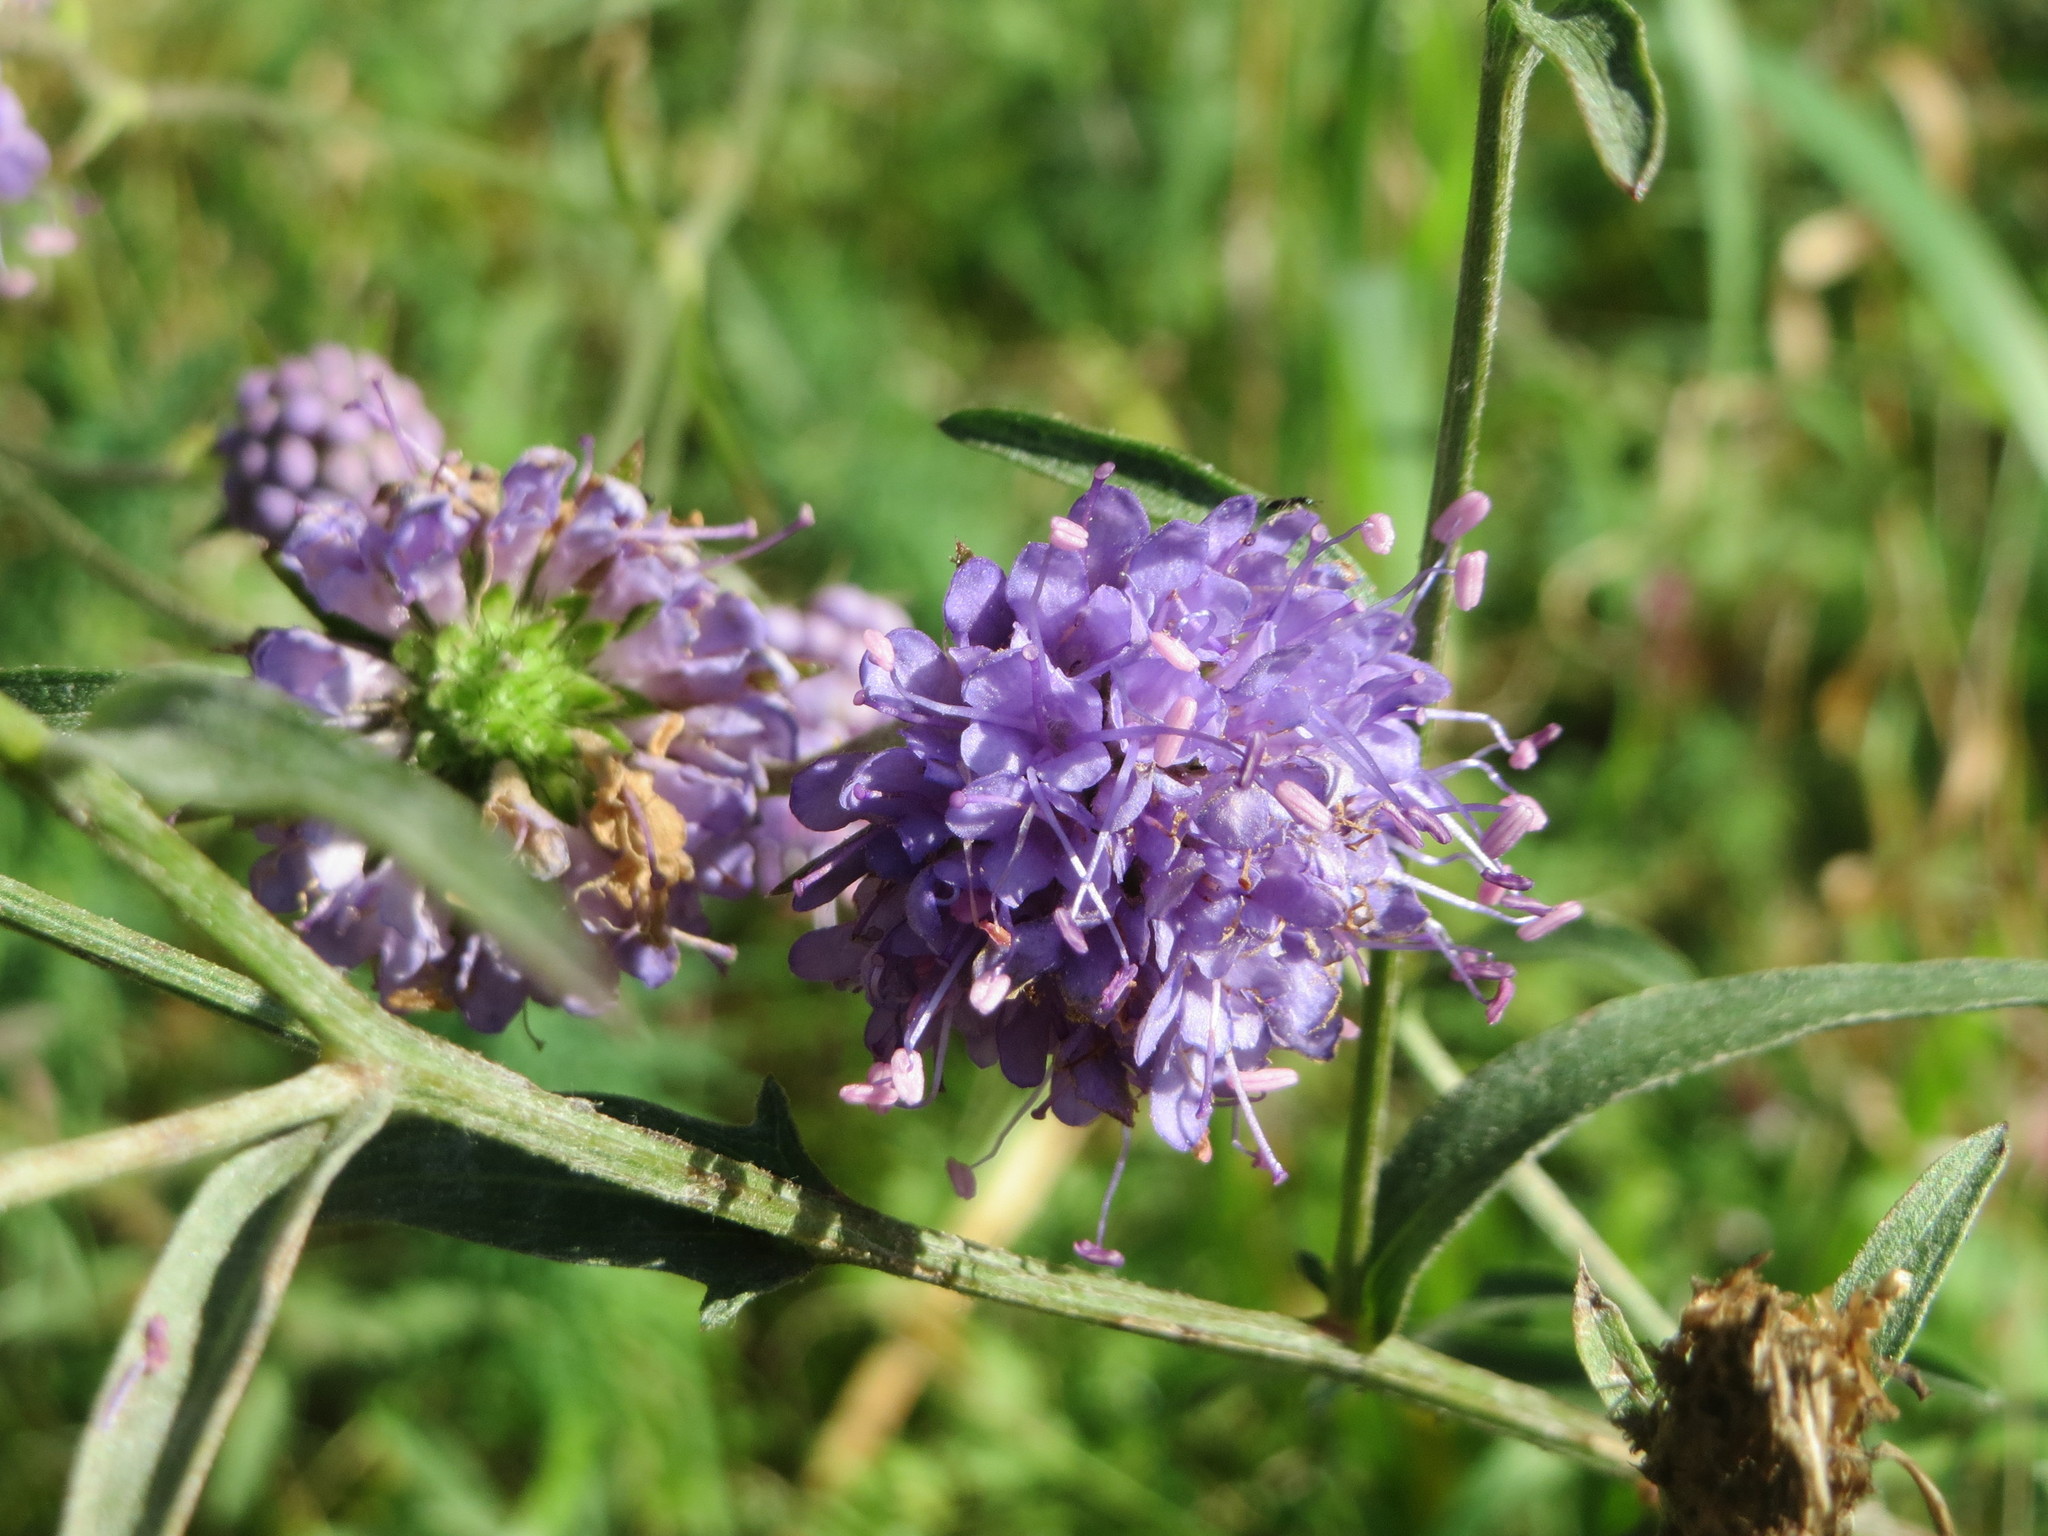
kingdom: Plantae
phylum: Tracheophyta
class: Magnoliopsida
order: Dipsacales
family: Caprifoliaceae
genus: Succisa
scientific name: Succisa pratensis
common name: Devil's-bit
